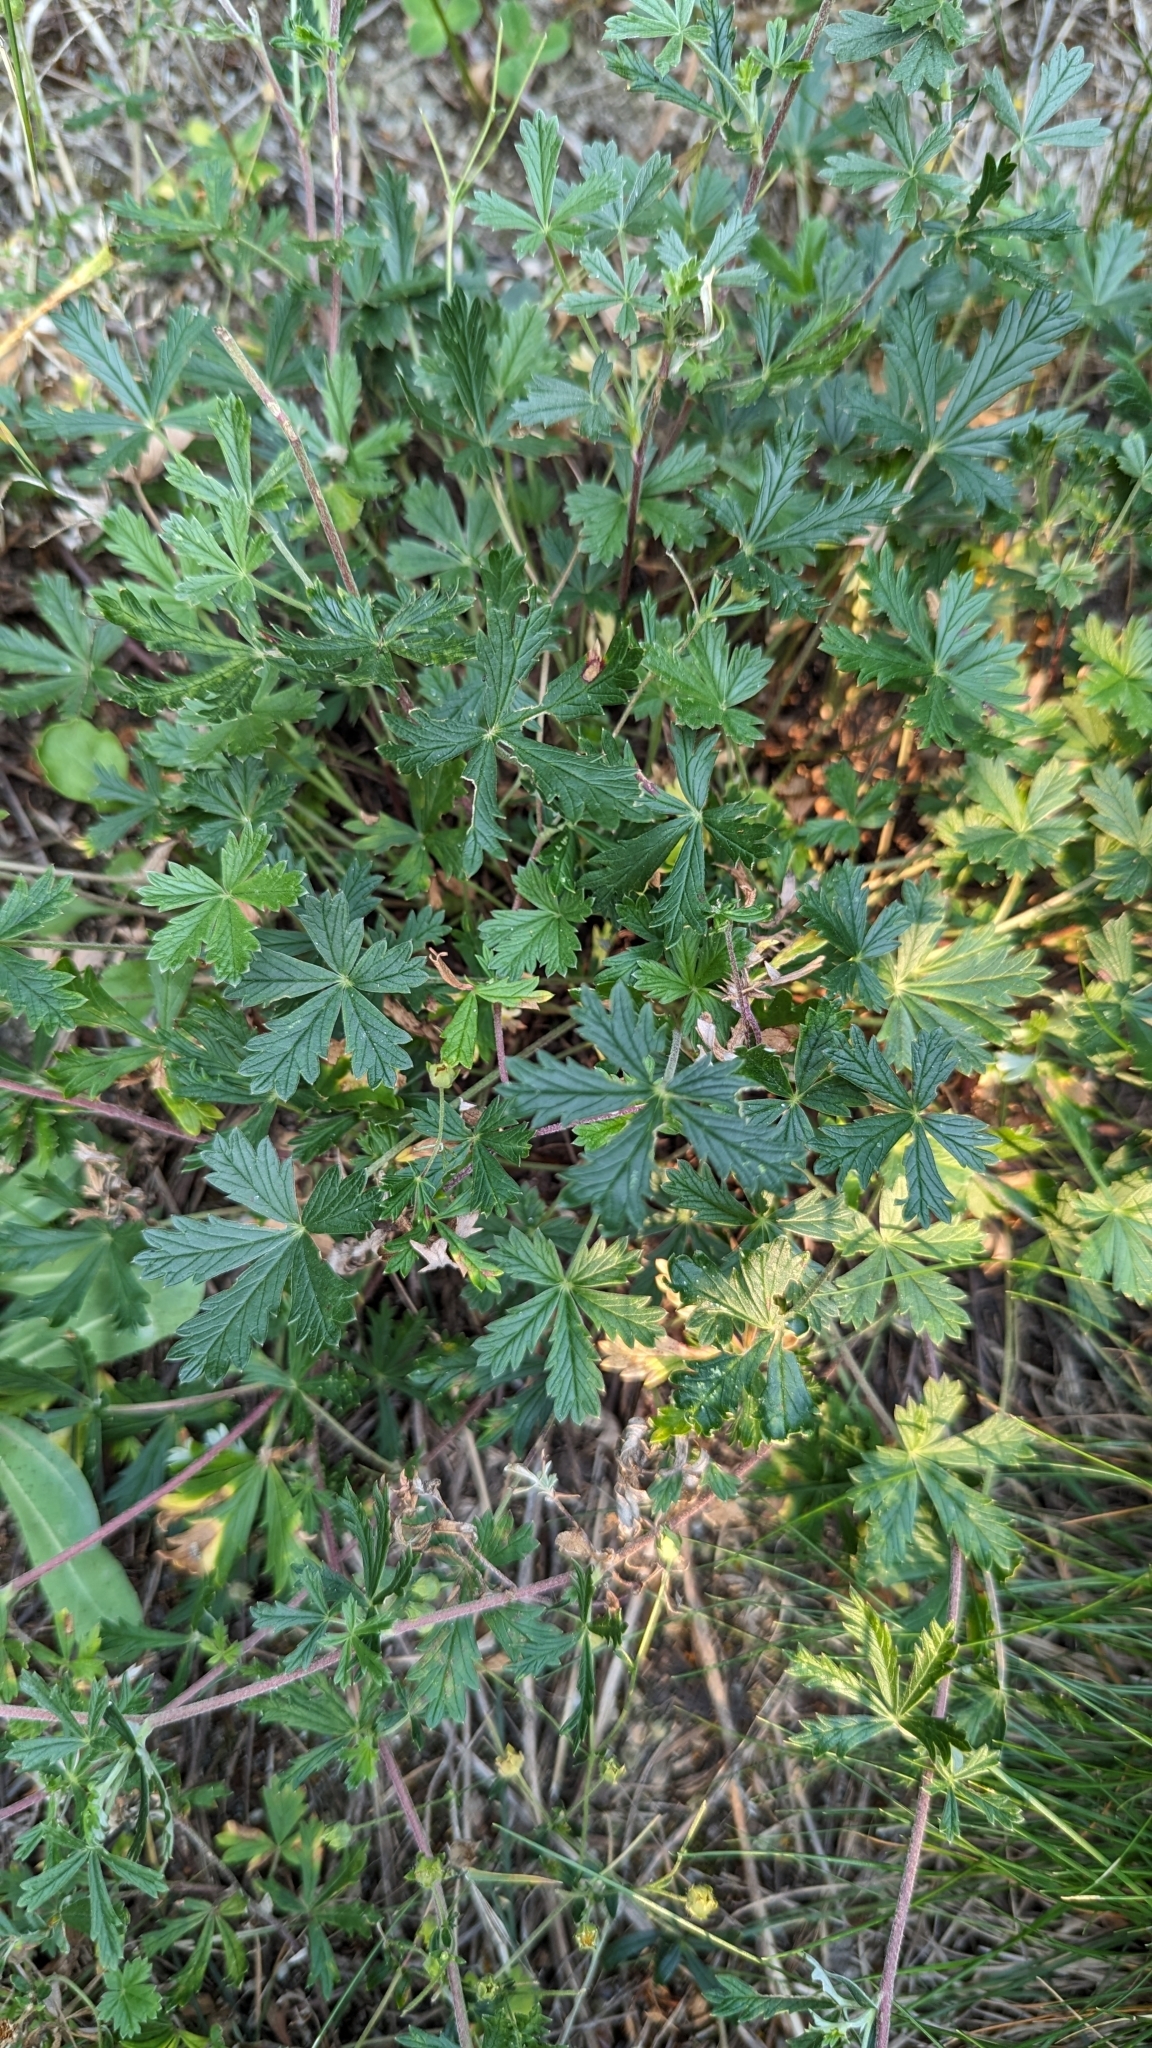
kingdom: Plantae
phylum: Tracheophyta
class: Magnoliopsida
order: Rosales
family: Rosaceae
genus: Potentilla
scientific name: Potentilla argentea
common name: Hoary cinquefoil
